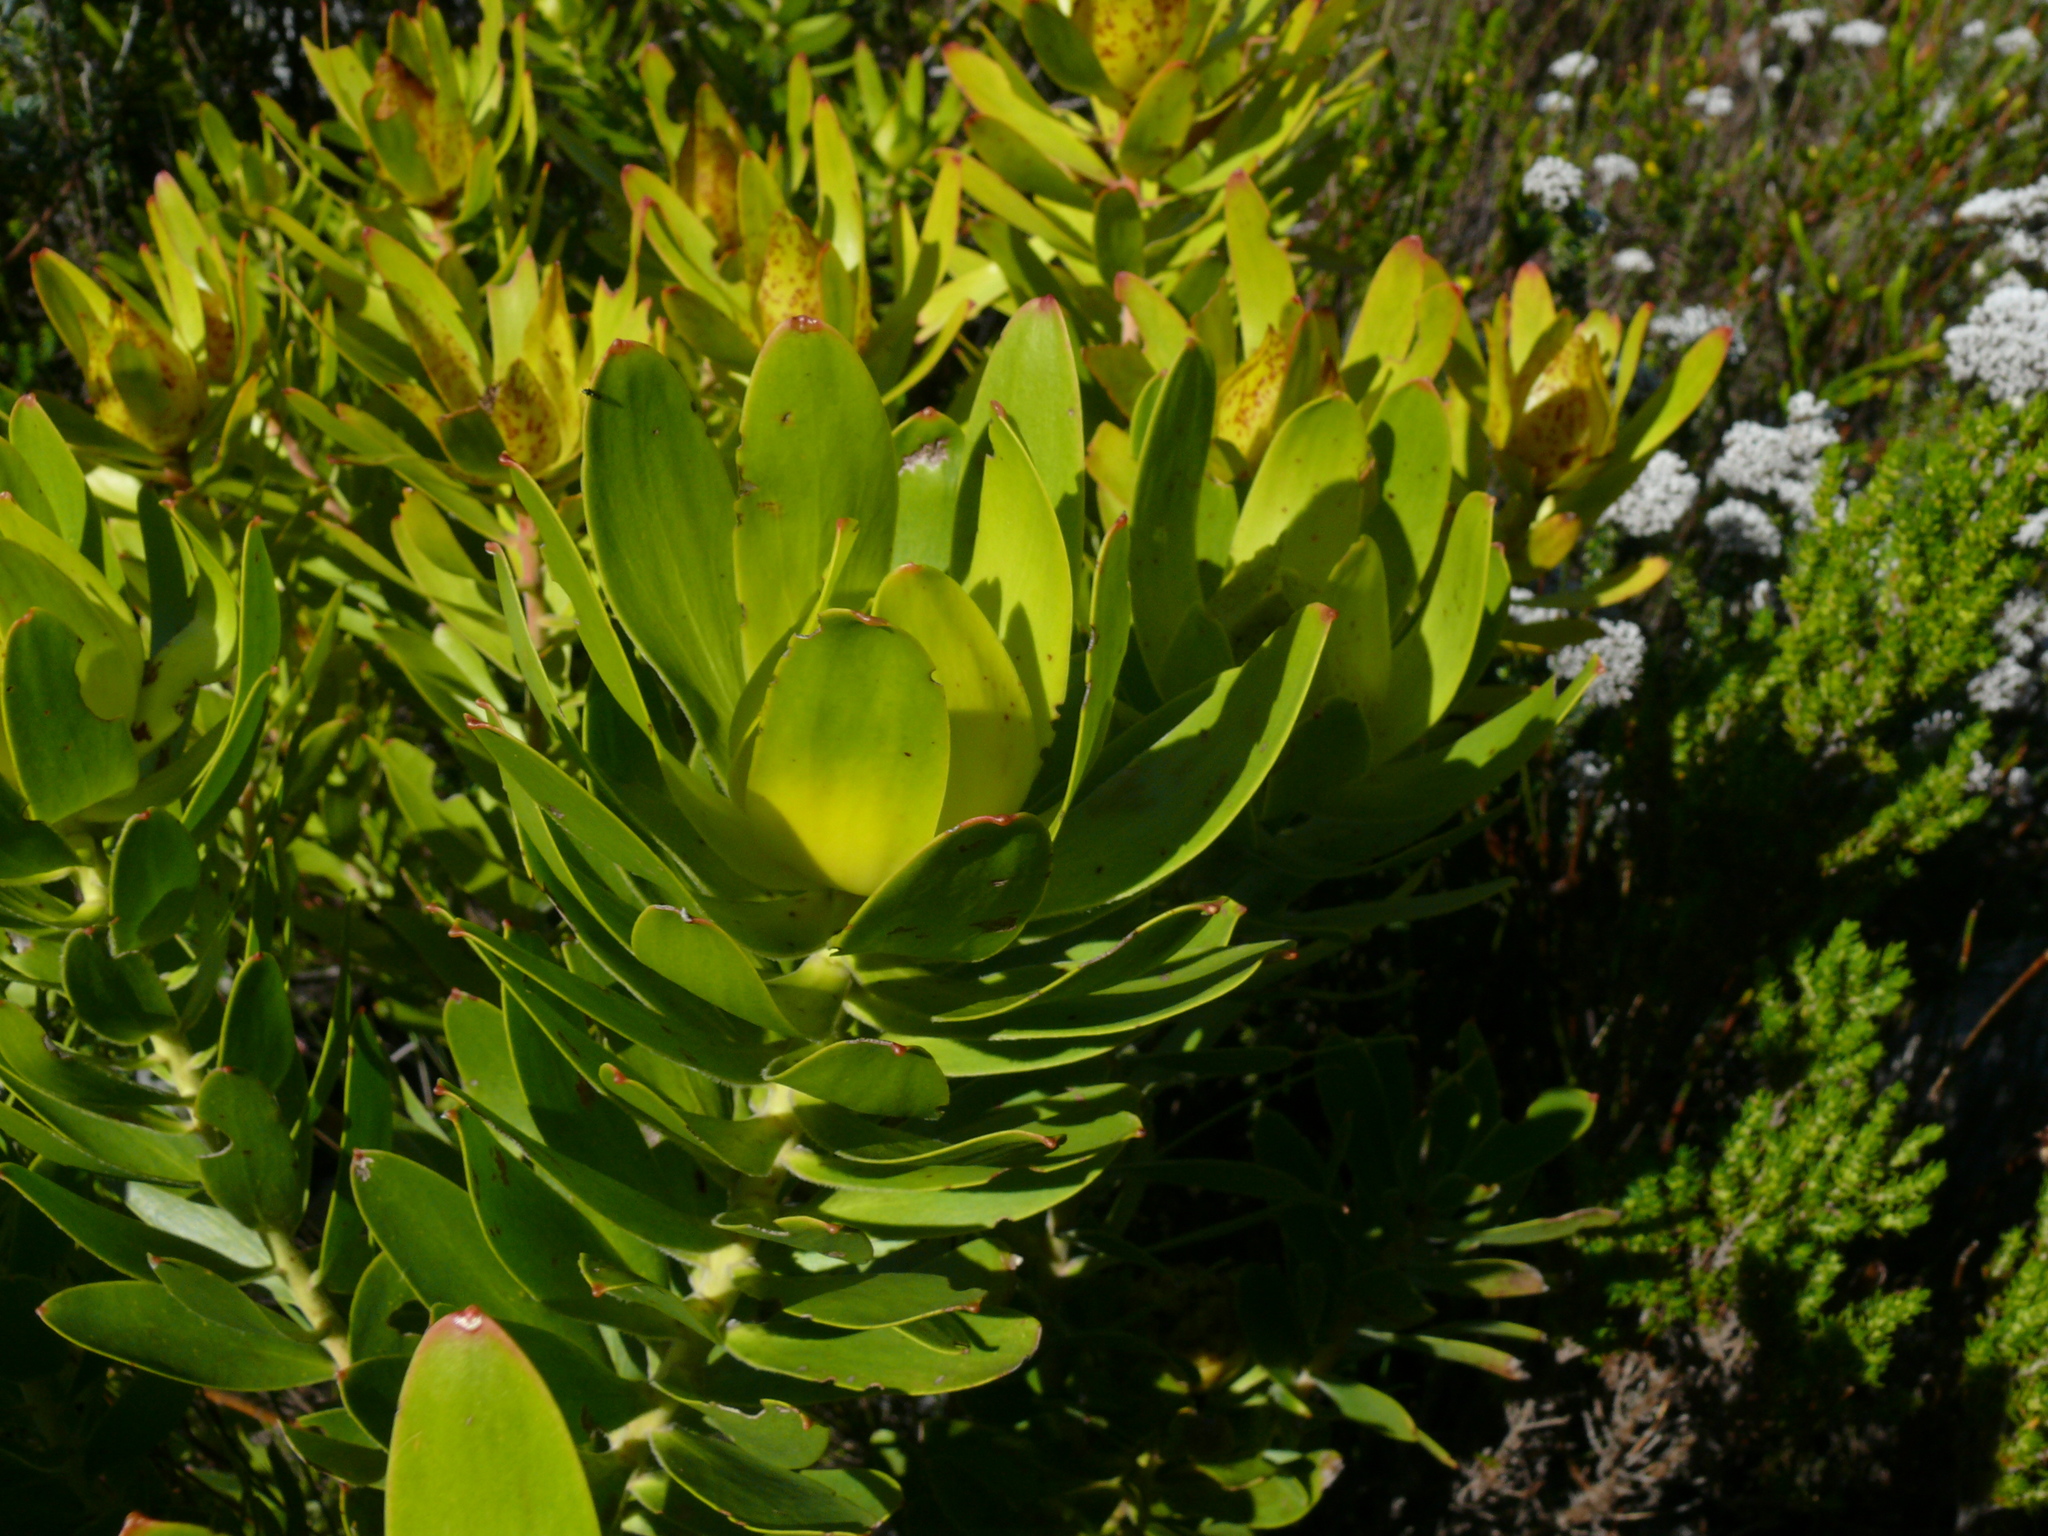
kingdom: Plantae
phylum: Tracheophyta
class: Magnoliopsida
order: Proteales
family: Proteaceae
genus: Leucadendron
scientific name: Leucadendron laureolum
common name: Golden sunshinebush
